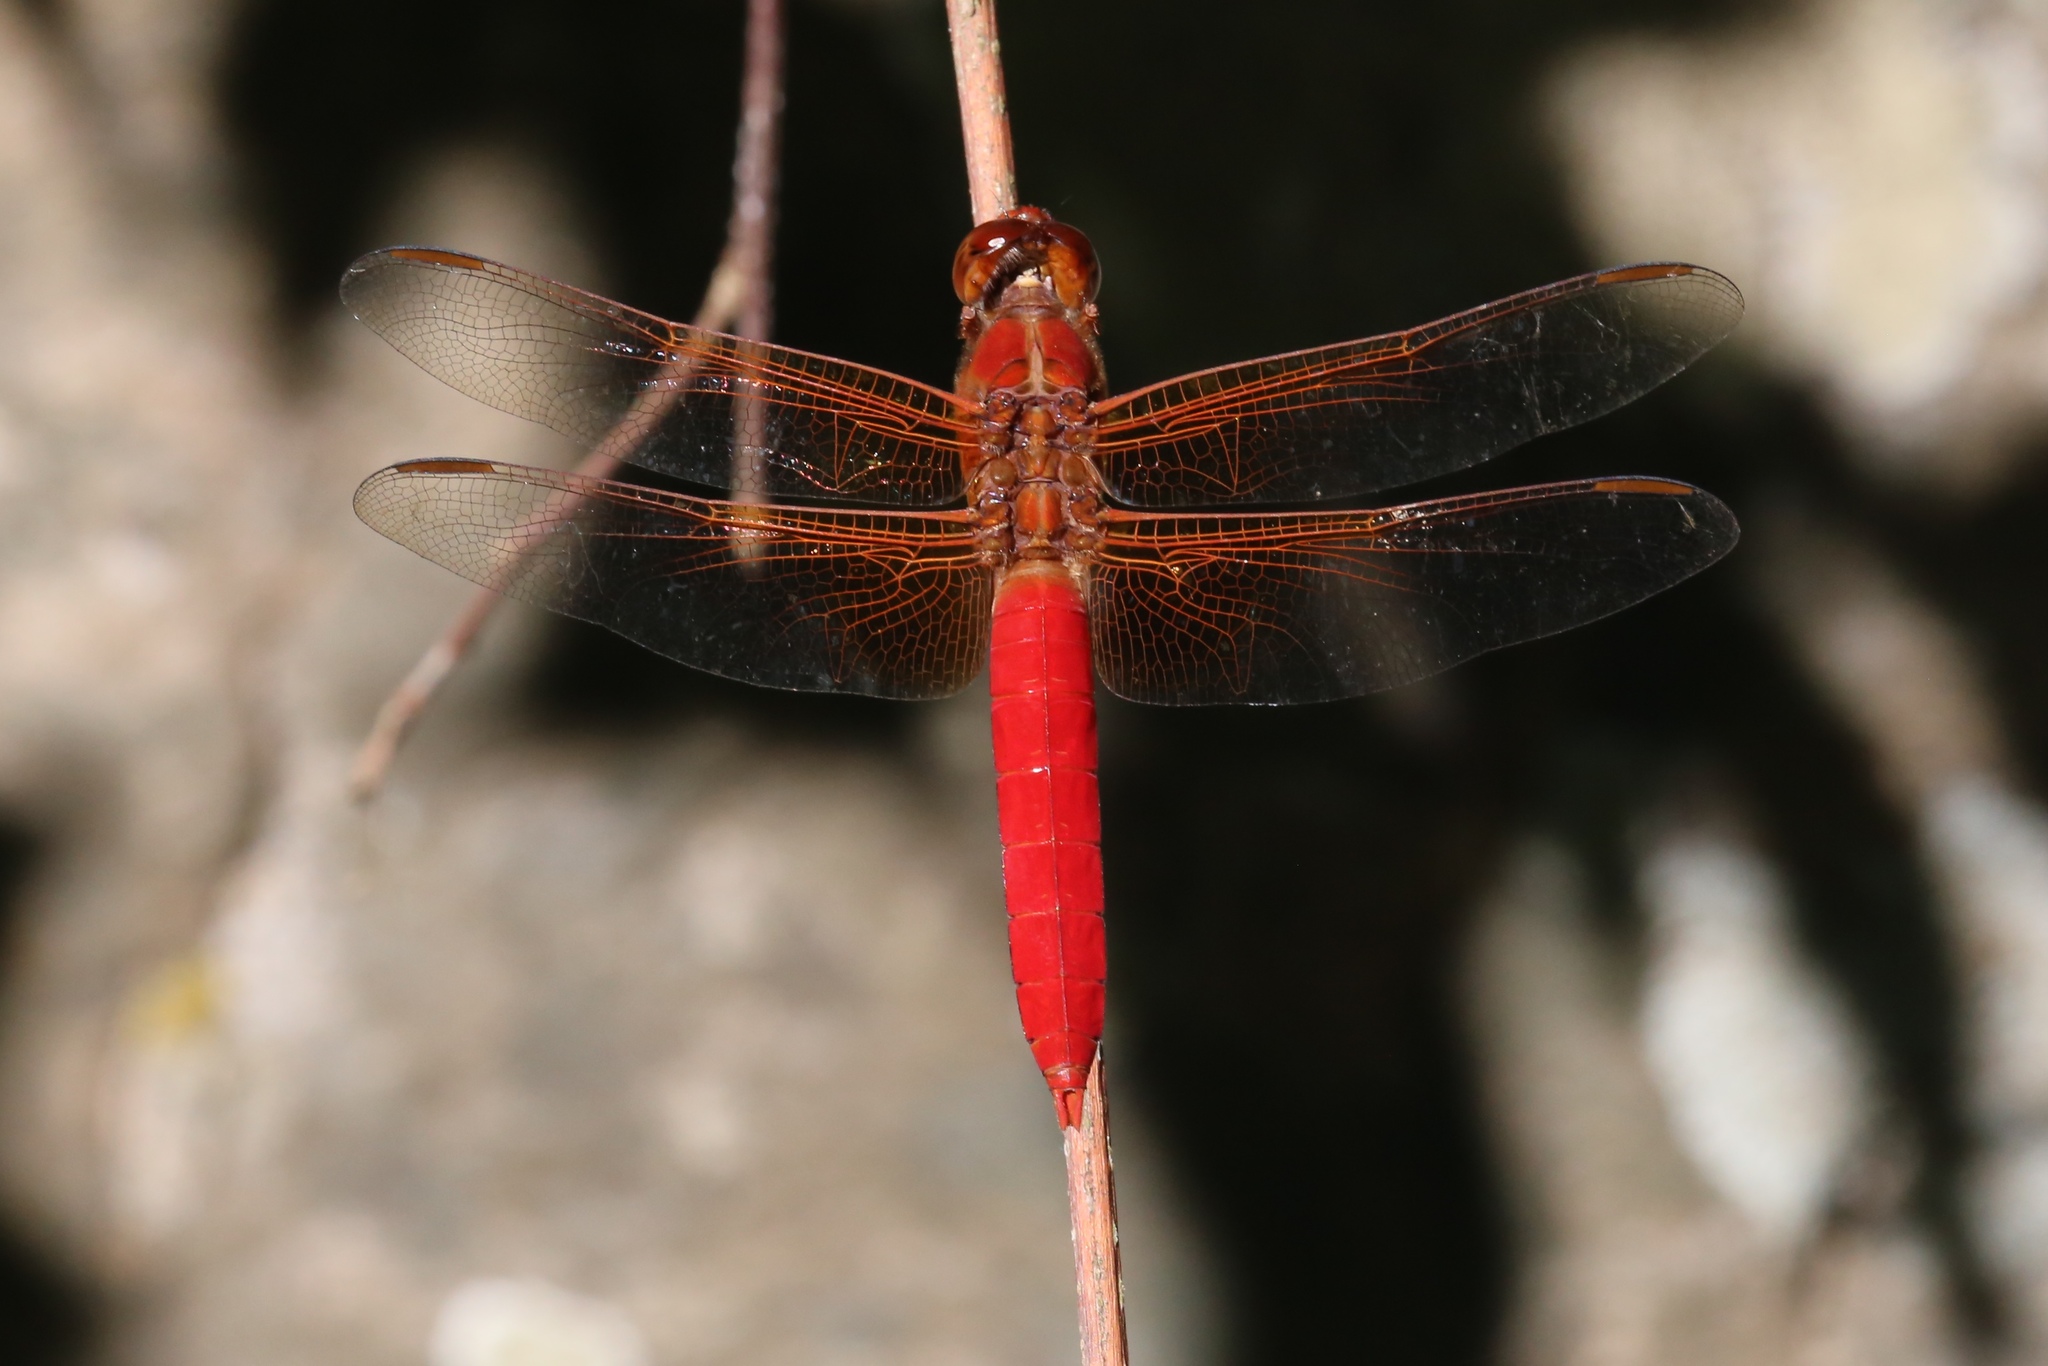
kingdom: Animalia
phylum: Arthropoda
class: Insecta
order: Odonata
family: Libellulidae
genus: Libellula
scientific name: Libellula croceipennis
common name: Neon skimmer
